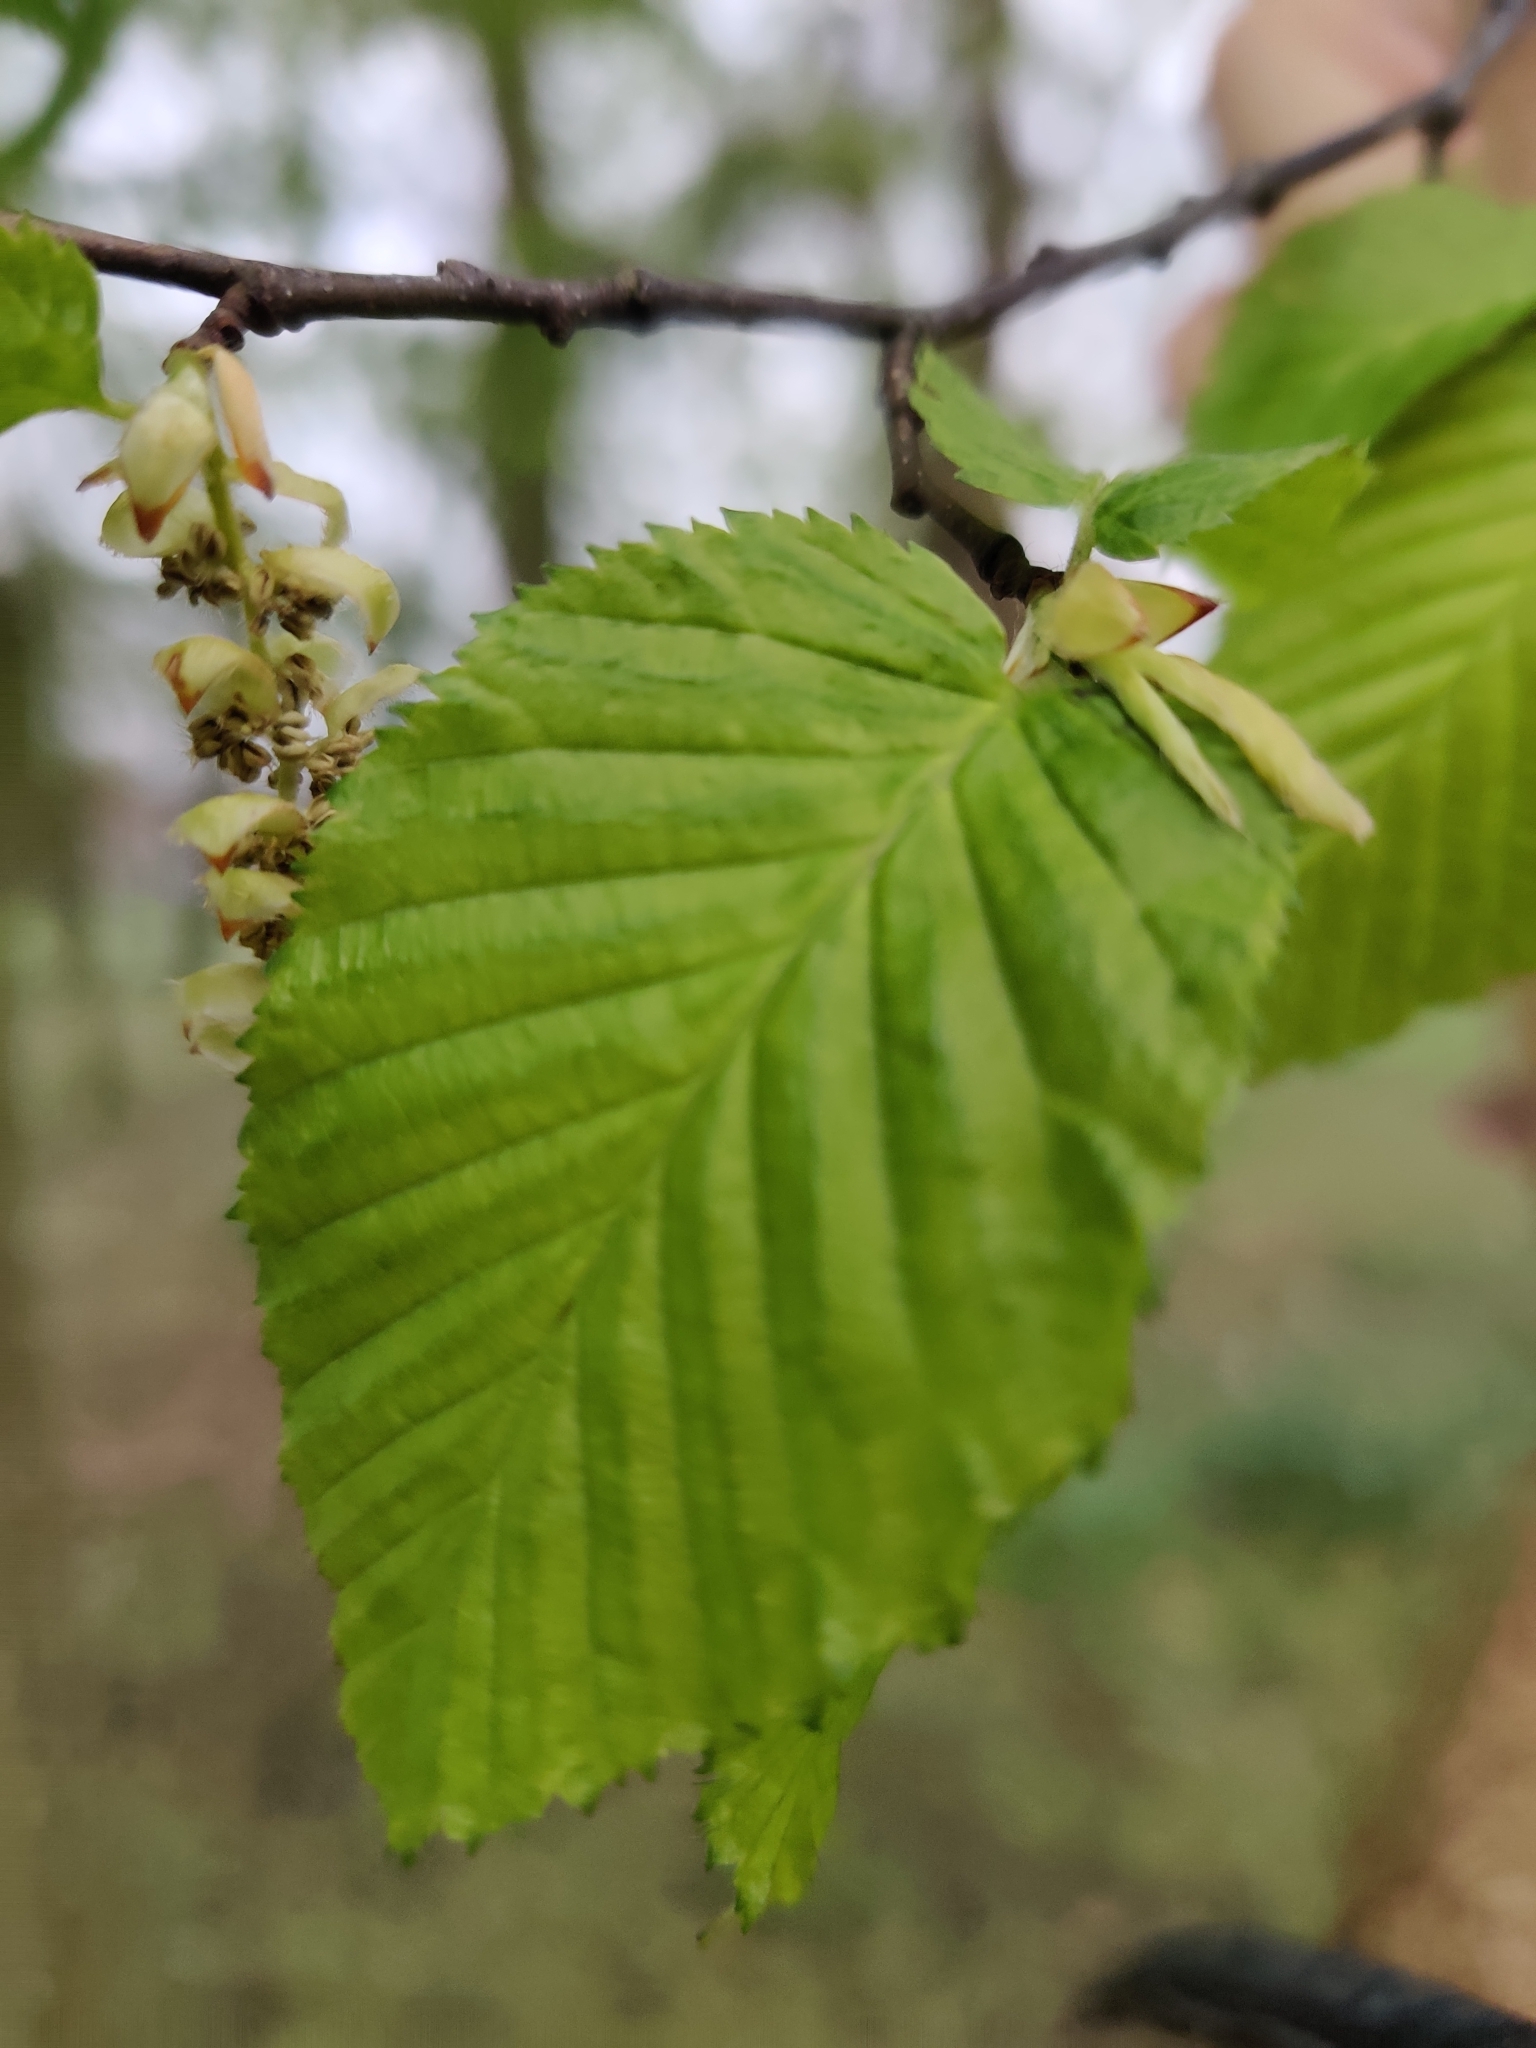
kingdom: Plantae
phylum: Tracheophyta
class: Magnoliopsida
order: Fagales
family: Betulaceae
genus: Carpinus
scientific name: Carpinus betulus
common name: Hornbeam
